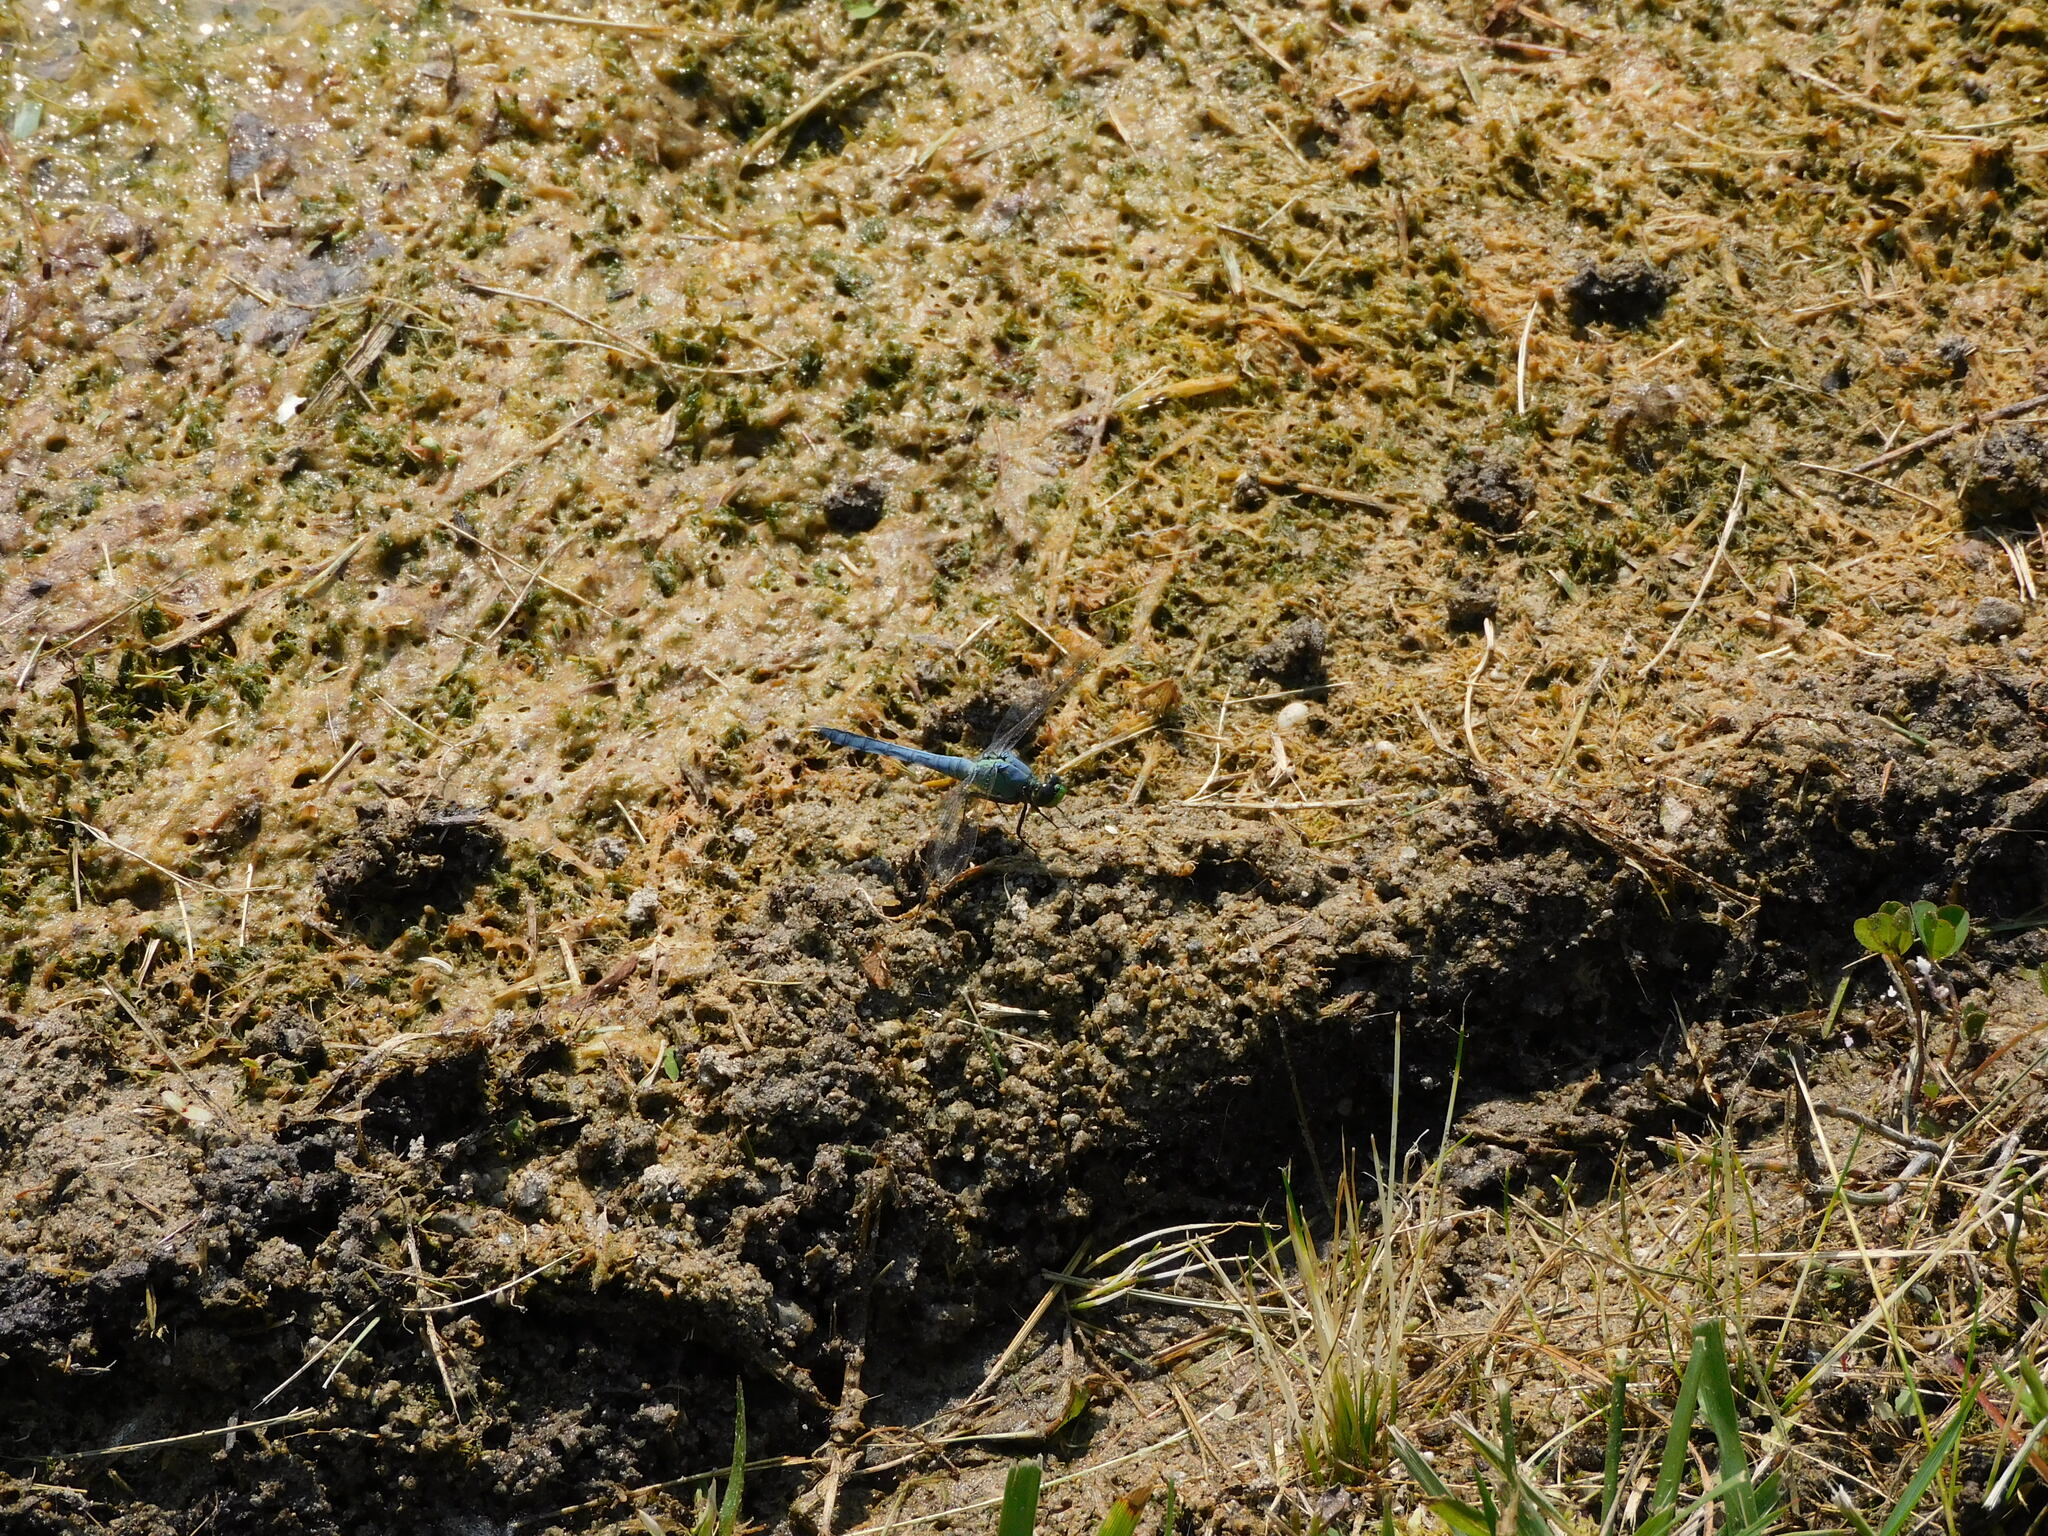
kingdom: Animalia
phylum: Arthropoda
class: Insecta
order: Odonata
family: Libellulidae
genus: Erythemis
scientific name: Erythemis simplicicollis
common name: Eastern pondhawk
